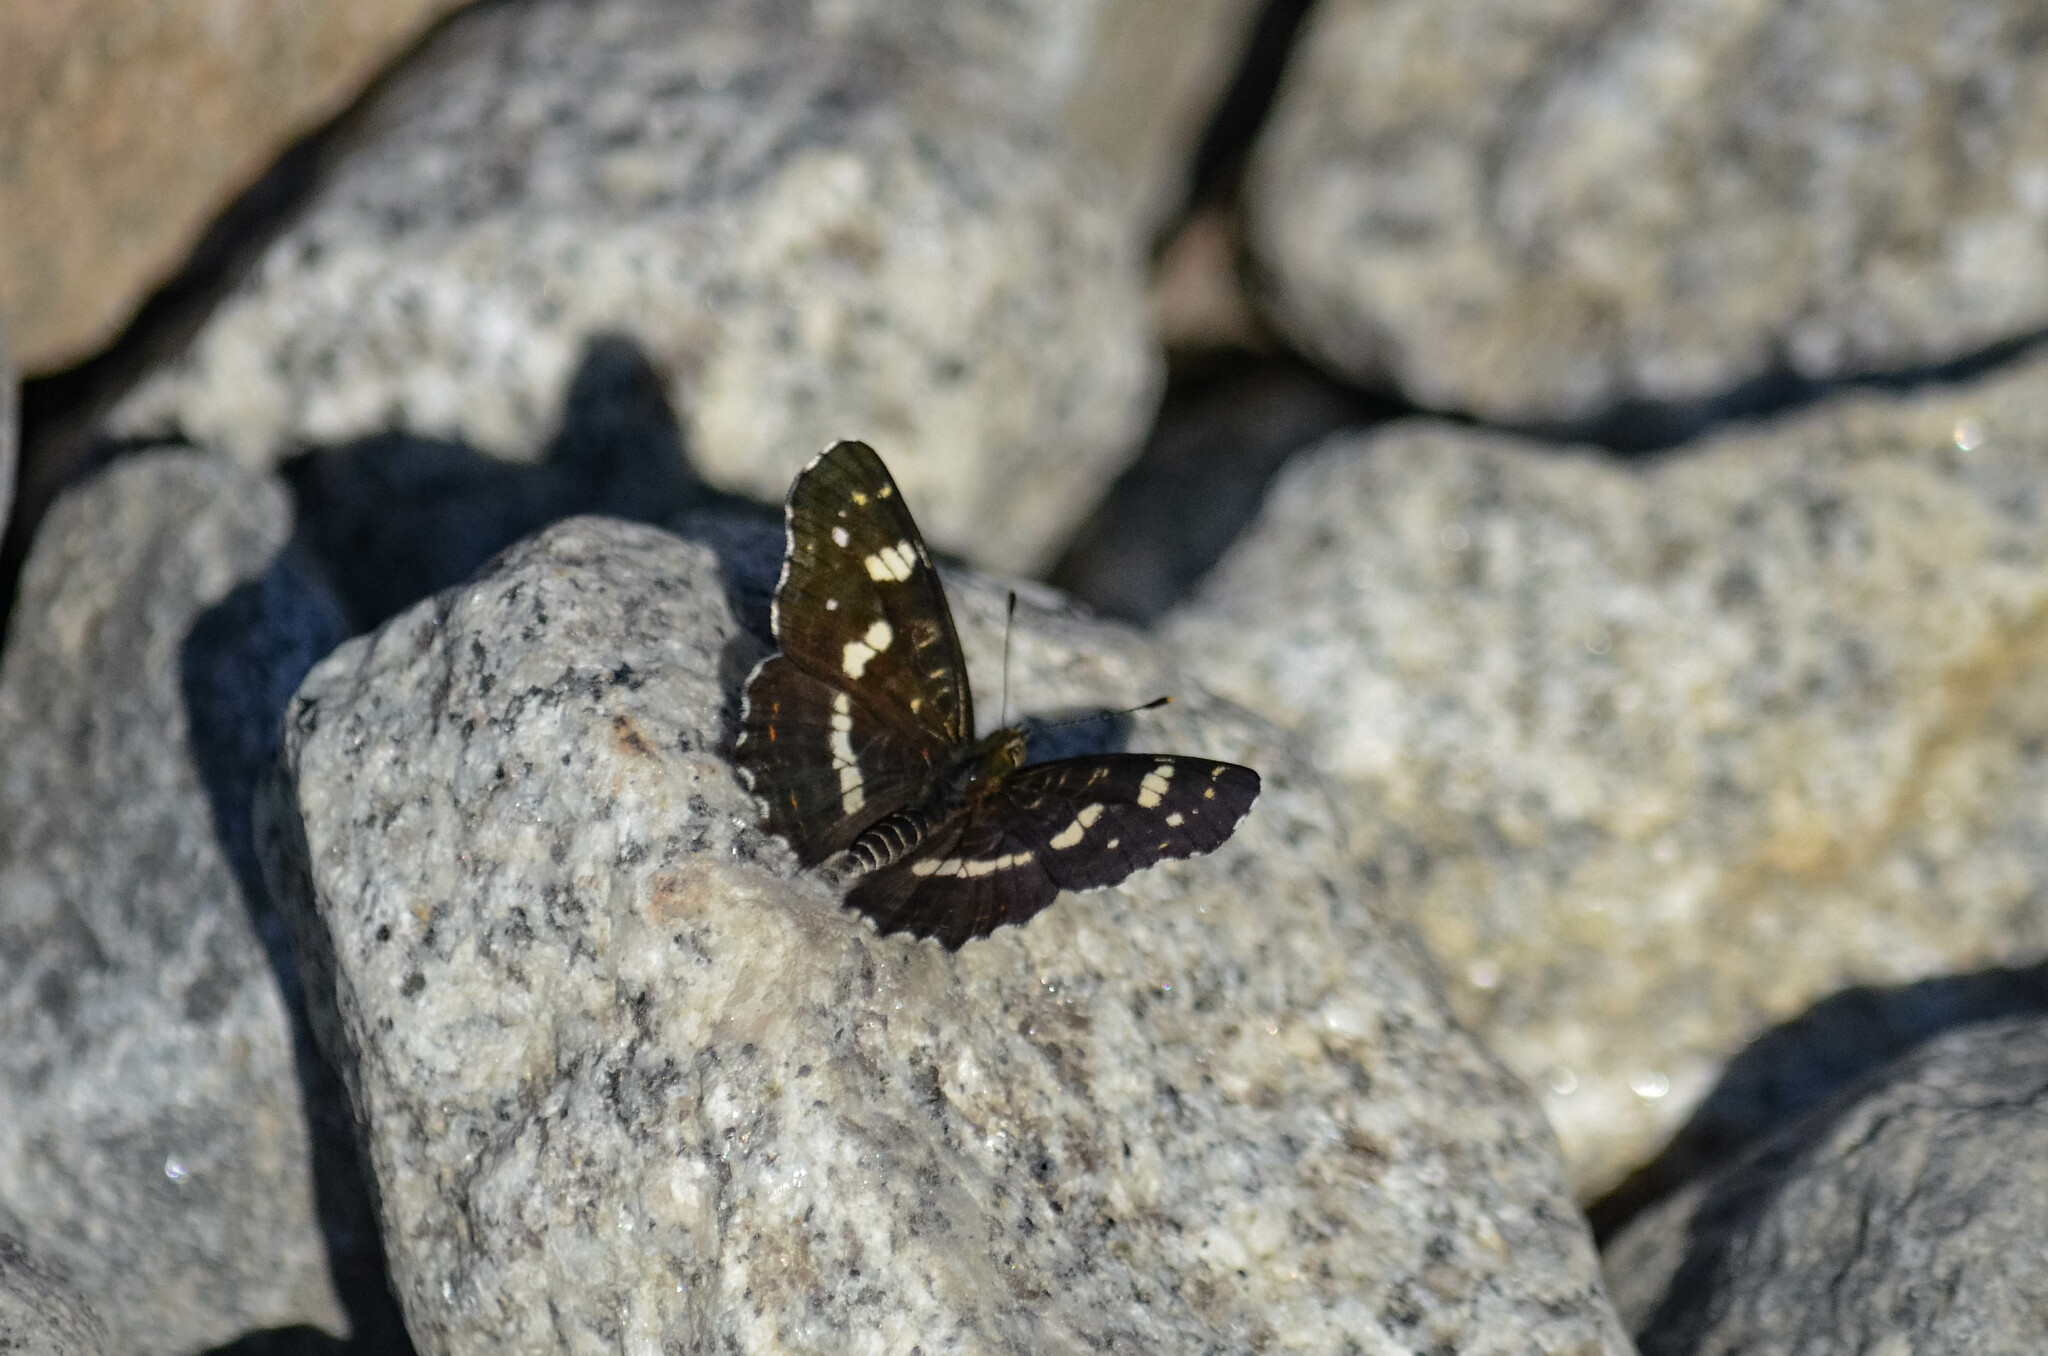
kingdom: Animalia
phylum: Arthropoda
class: Insecta
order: Lepidoptera
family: Nymphalidae
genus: Araschnia
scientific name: Araschnia levana
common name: Map butterfly
